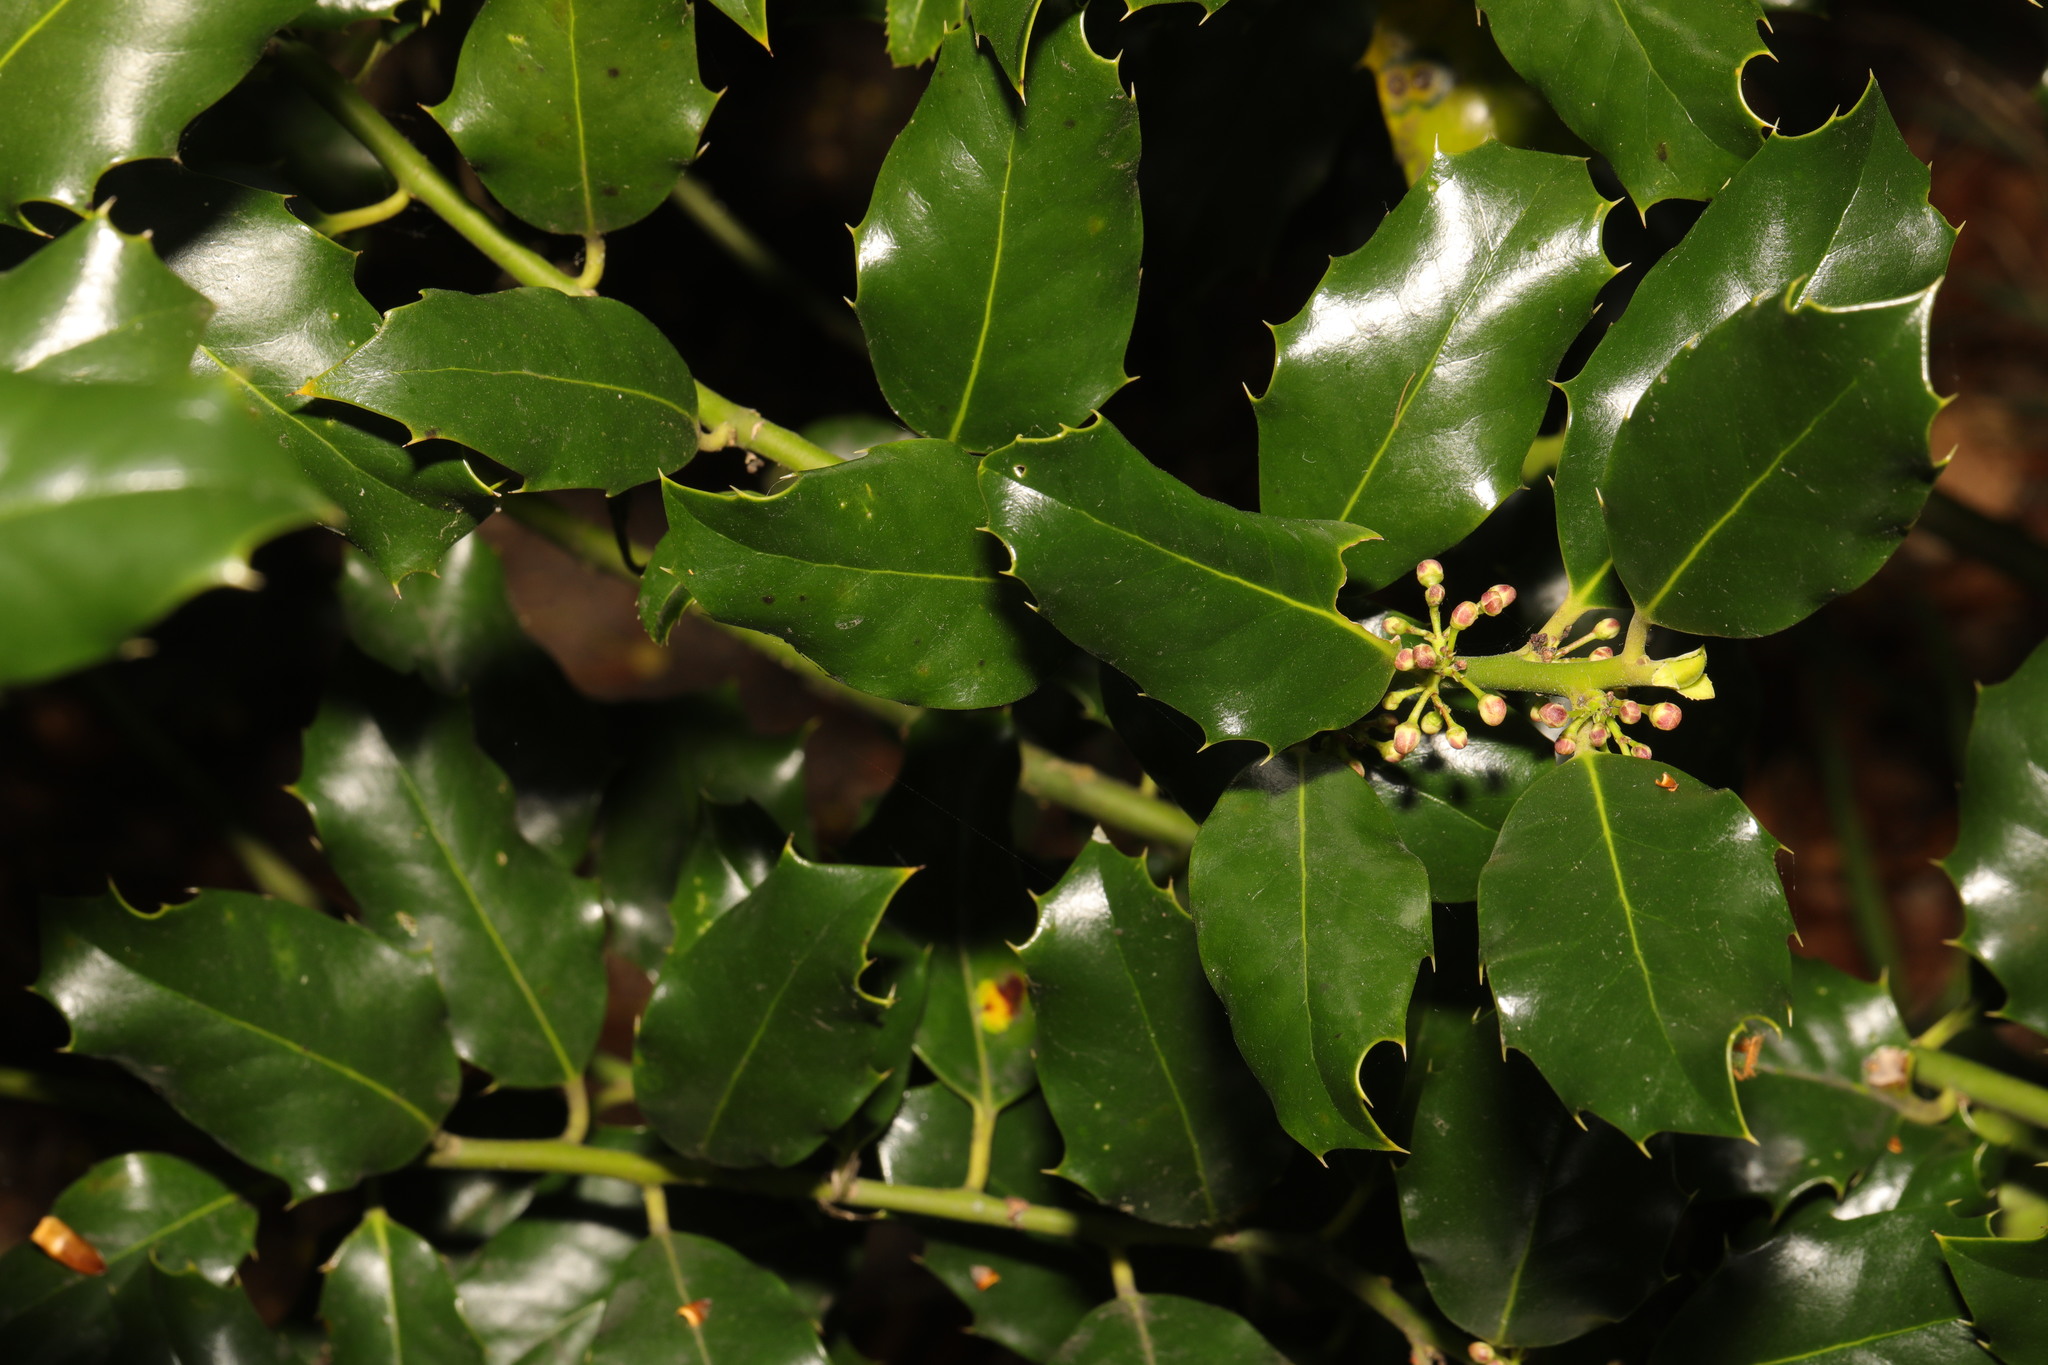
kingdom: Plantae
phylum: Tracheophyta
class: Magnoliopsida
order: Aquifoliales
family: Aquifoliaceae
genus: Ilex
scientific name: Ilex aquifolium
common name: English holly
